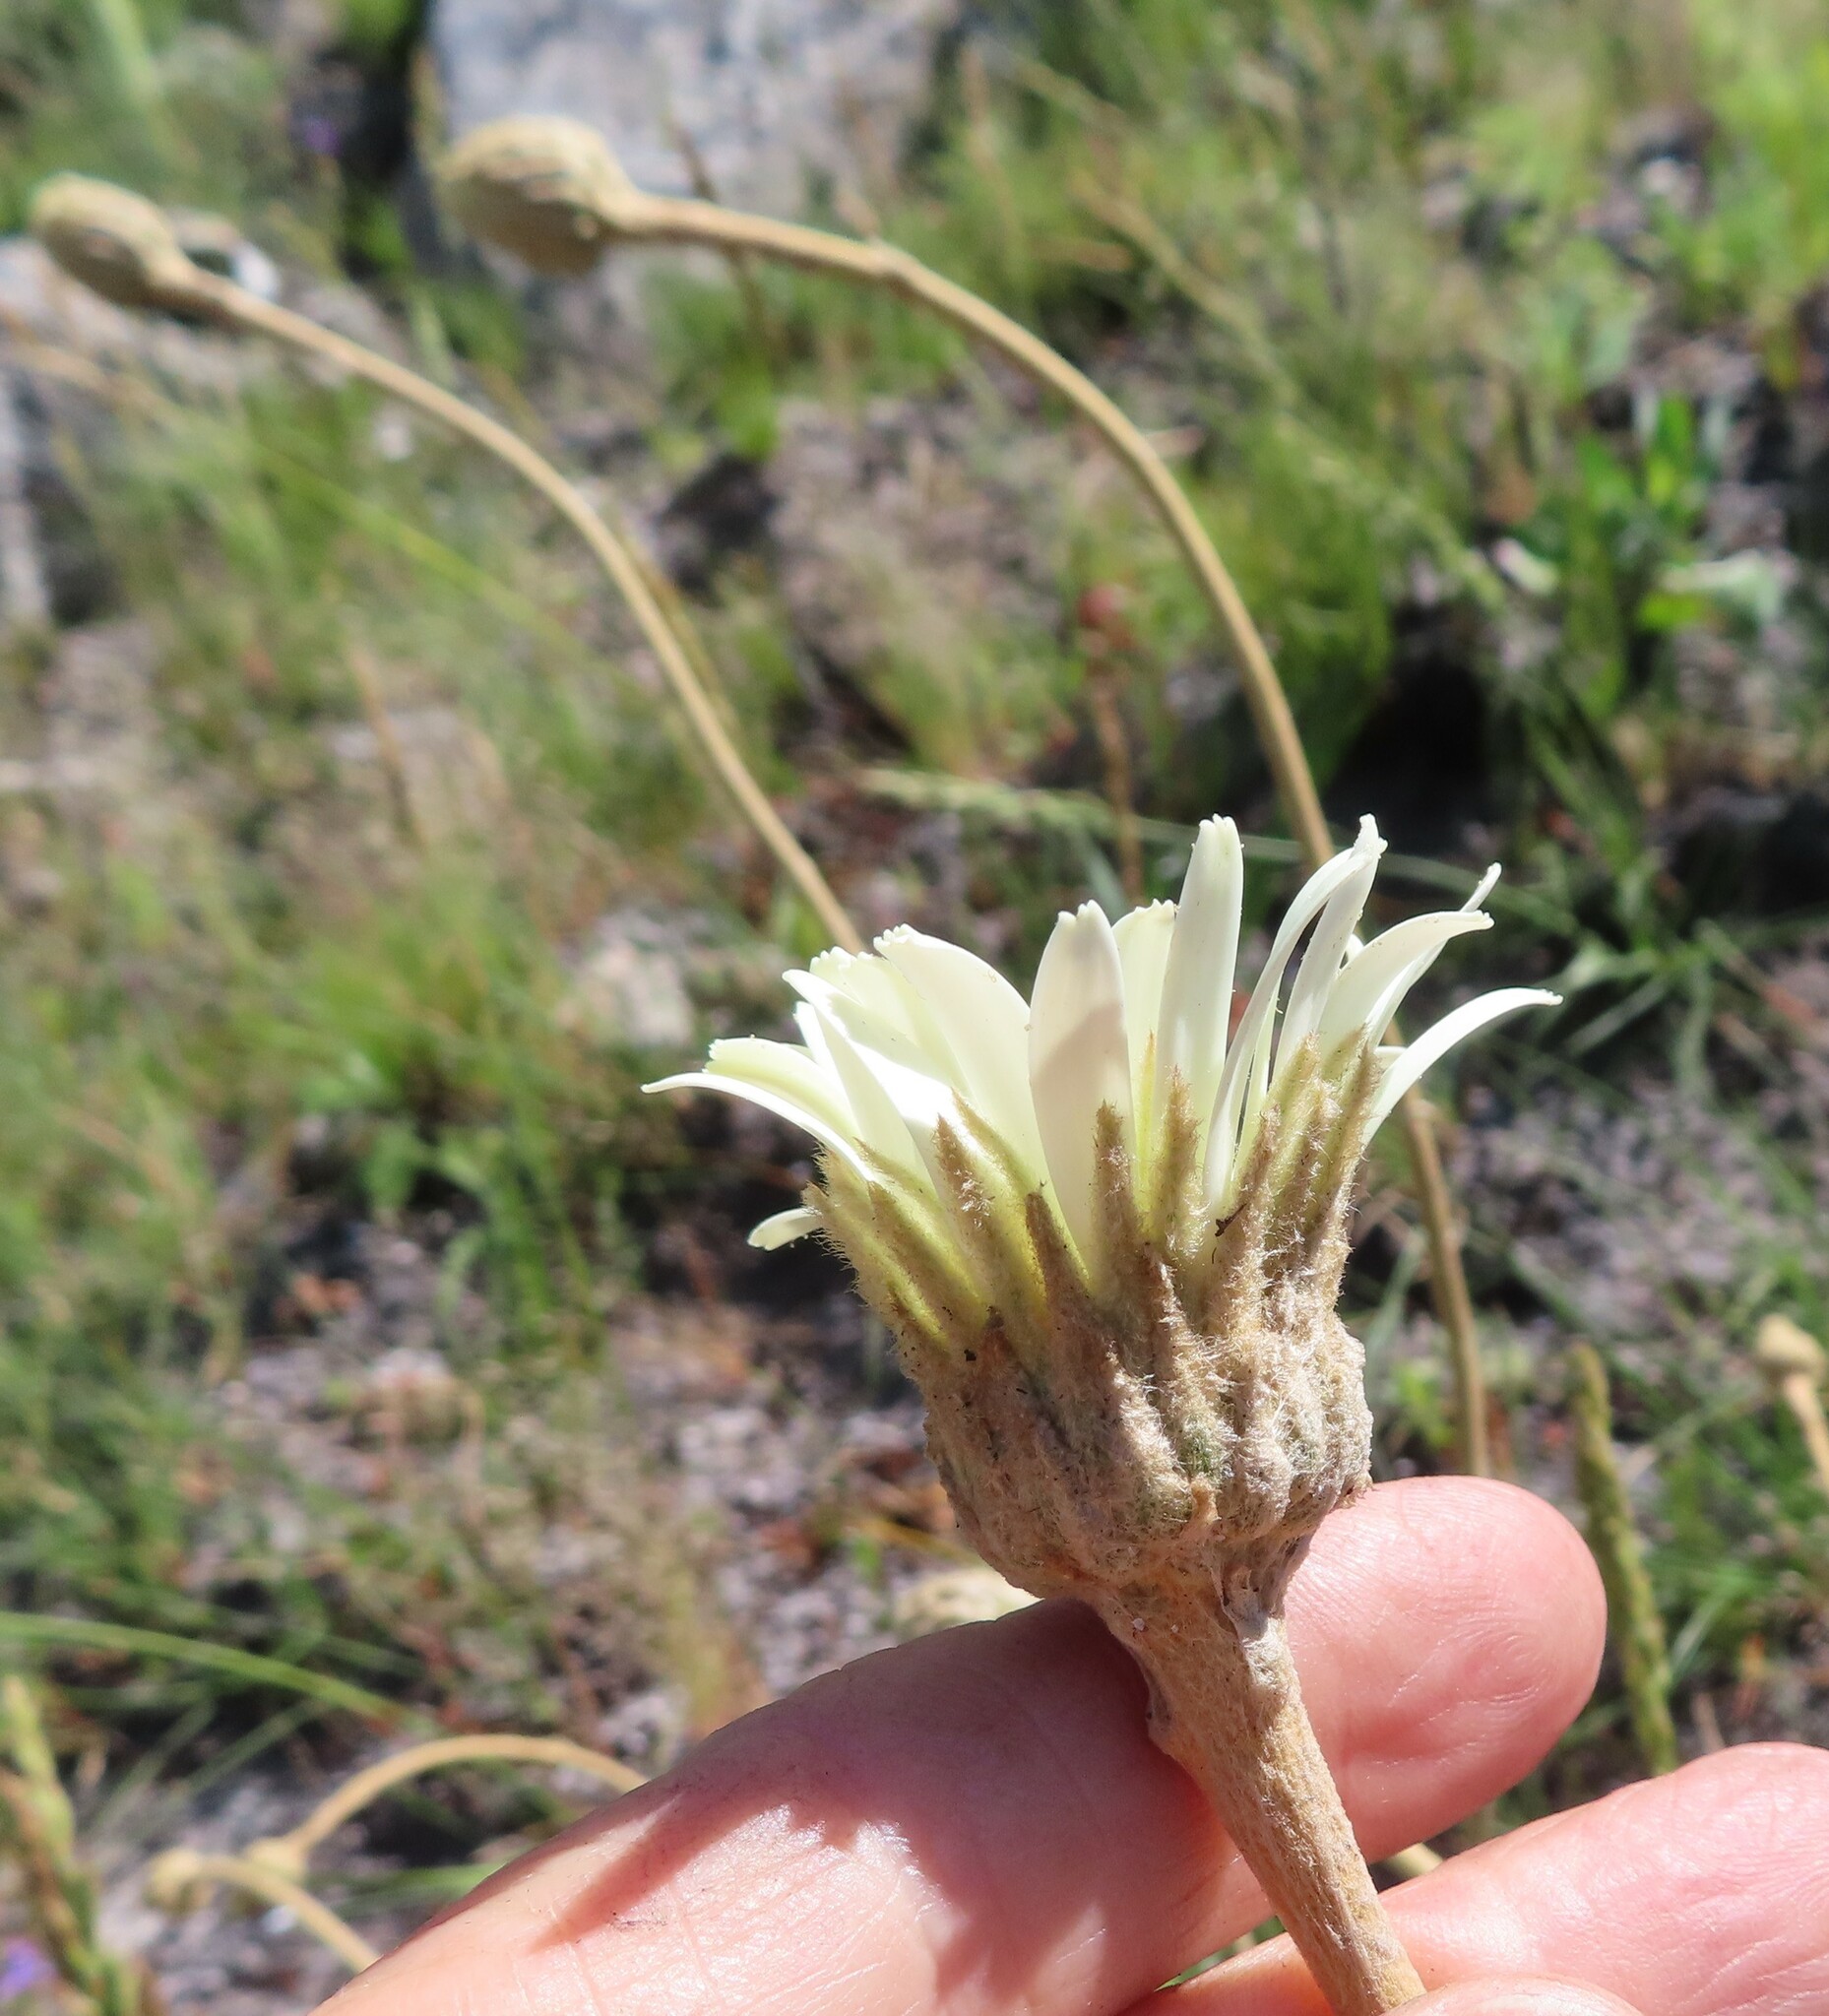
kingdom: Plantae
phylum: Tracheophyta
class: Magnoliopsida
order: Asterales
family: Asteraceae
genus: Gerbera
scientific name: Gerbera tomentosa
